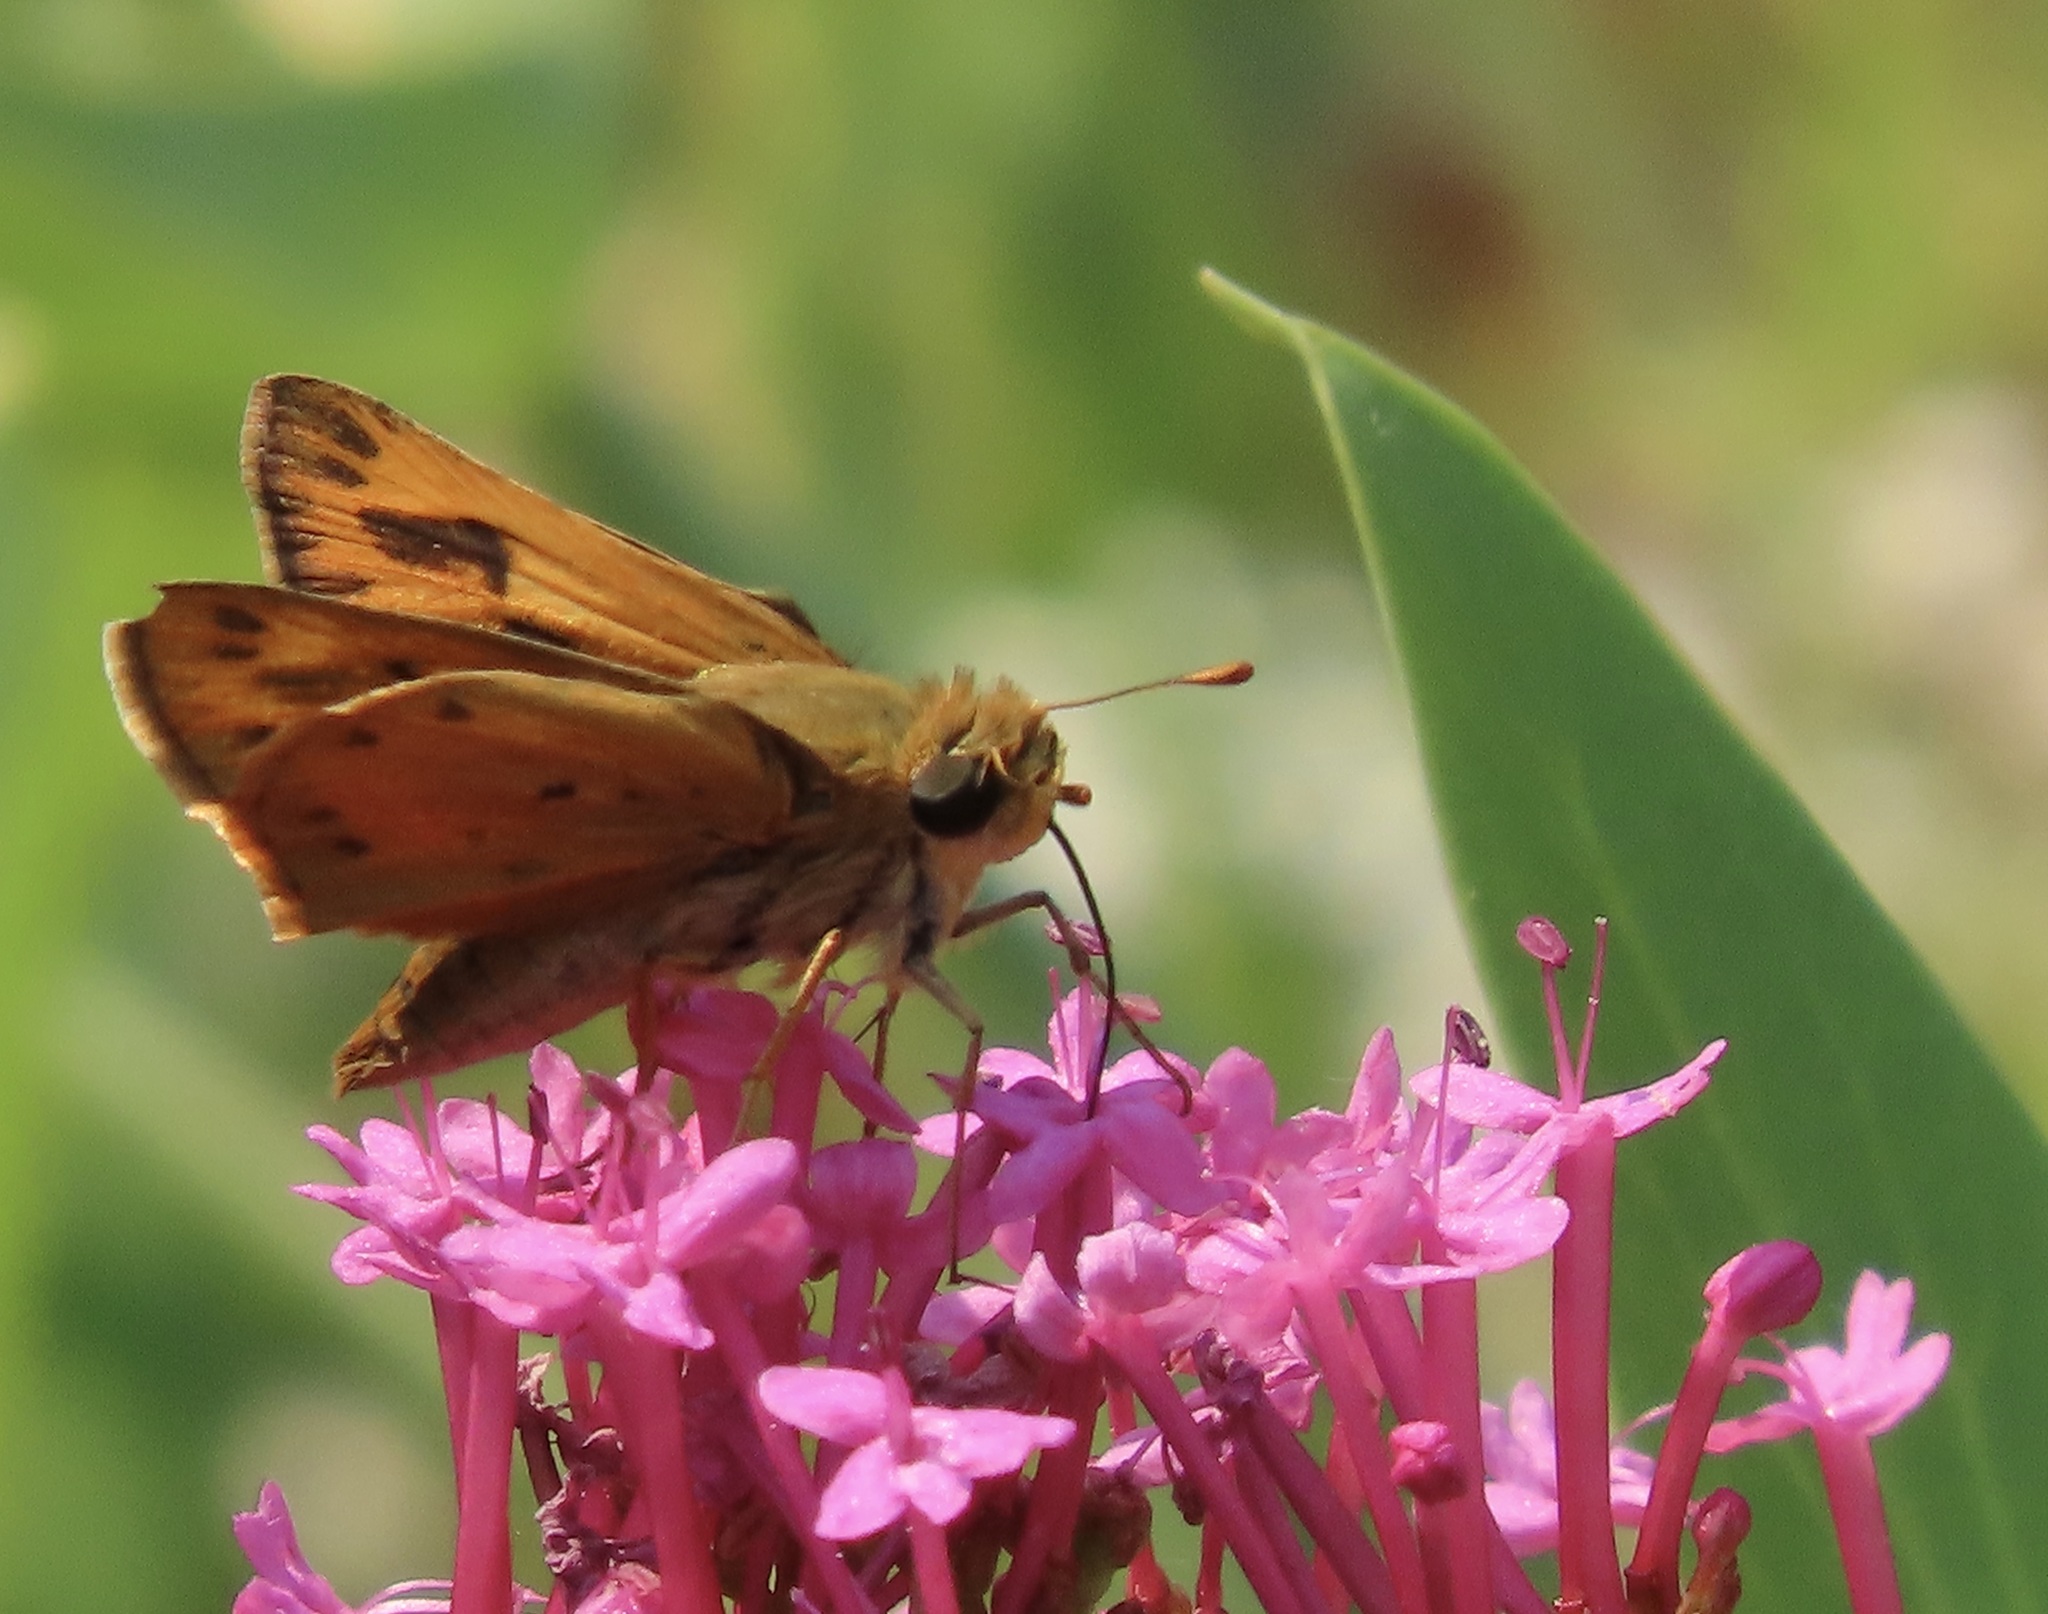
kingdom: Animalia
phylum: Arthropoda
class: Insecta
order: Lepidoptera
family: Hesperiidae
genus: Hylephila
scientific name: Hylephila phyleus
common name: Fiery skipper
